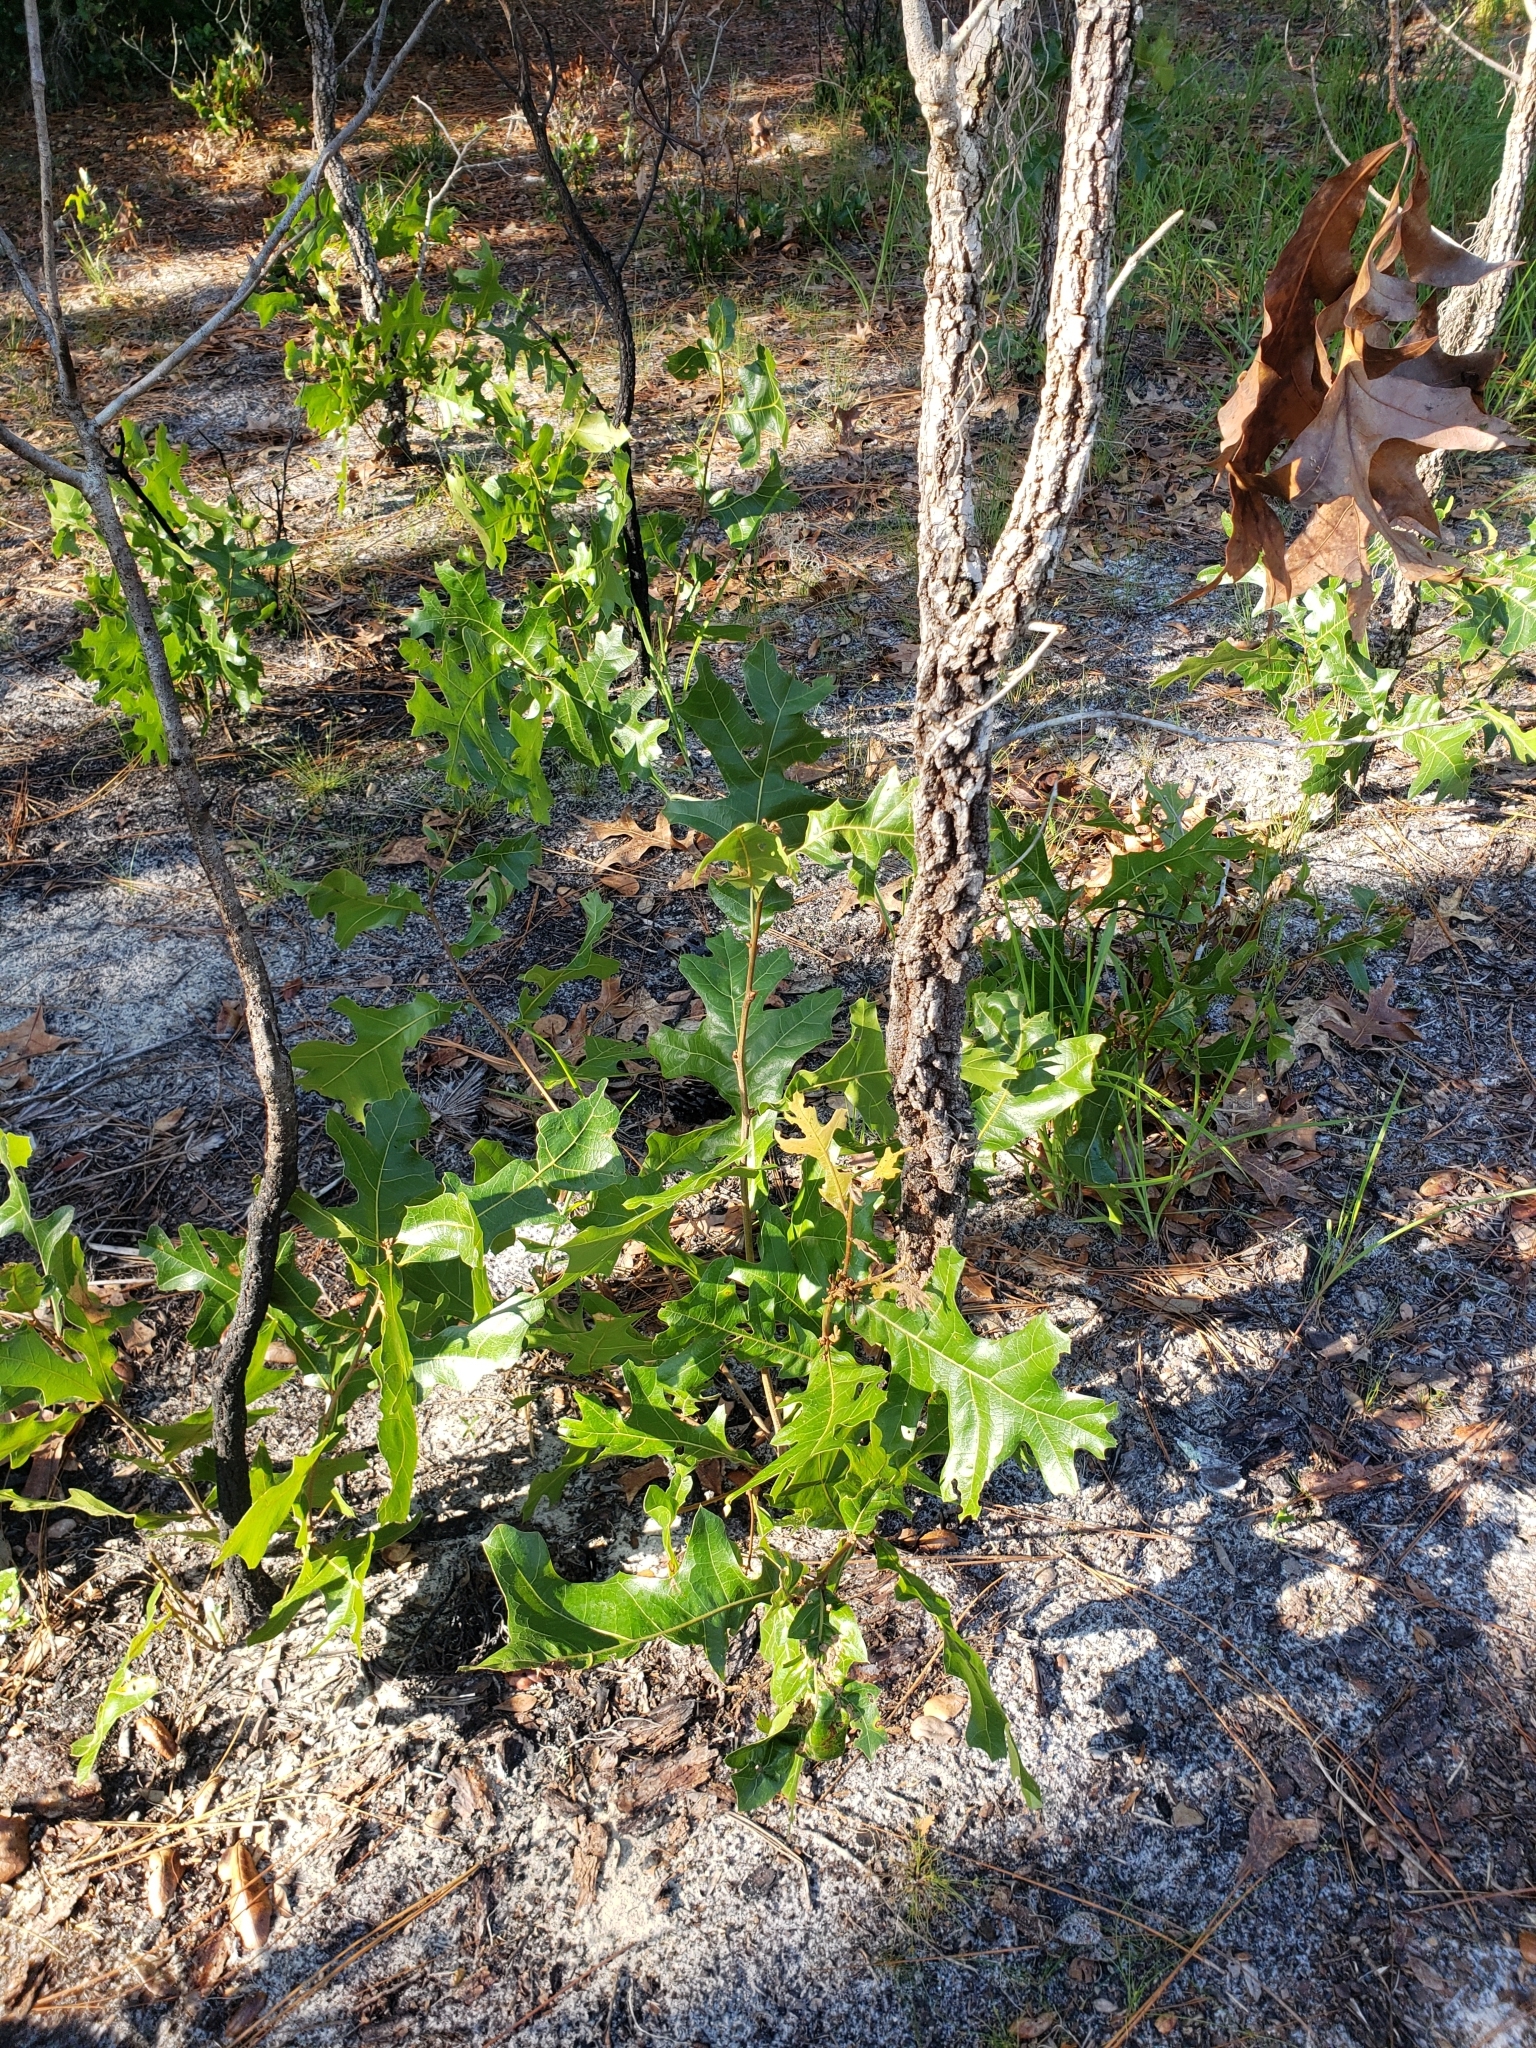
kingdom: Plantae
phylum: Tracheophyta
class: Magnoliopsida
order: Fagales
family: Fagaceae
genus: Quercus
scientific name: Quercus laevis
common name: Turkey oak
